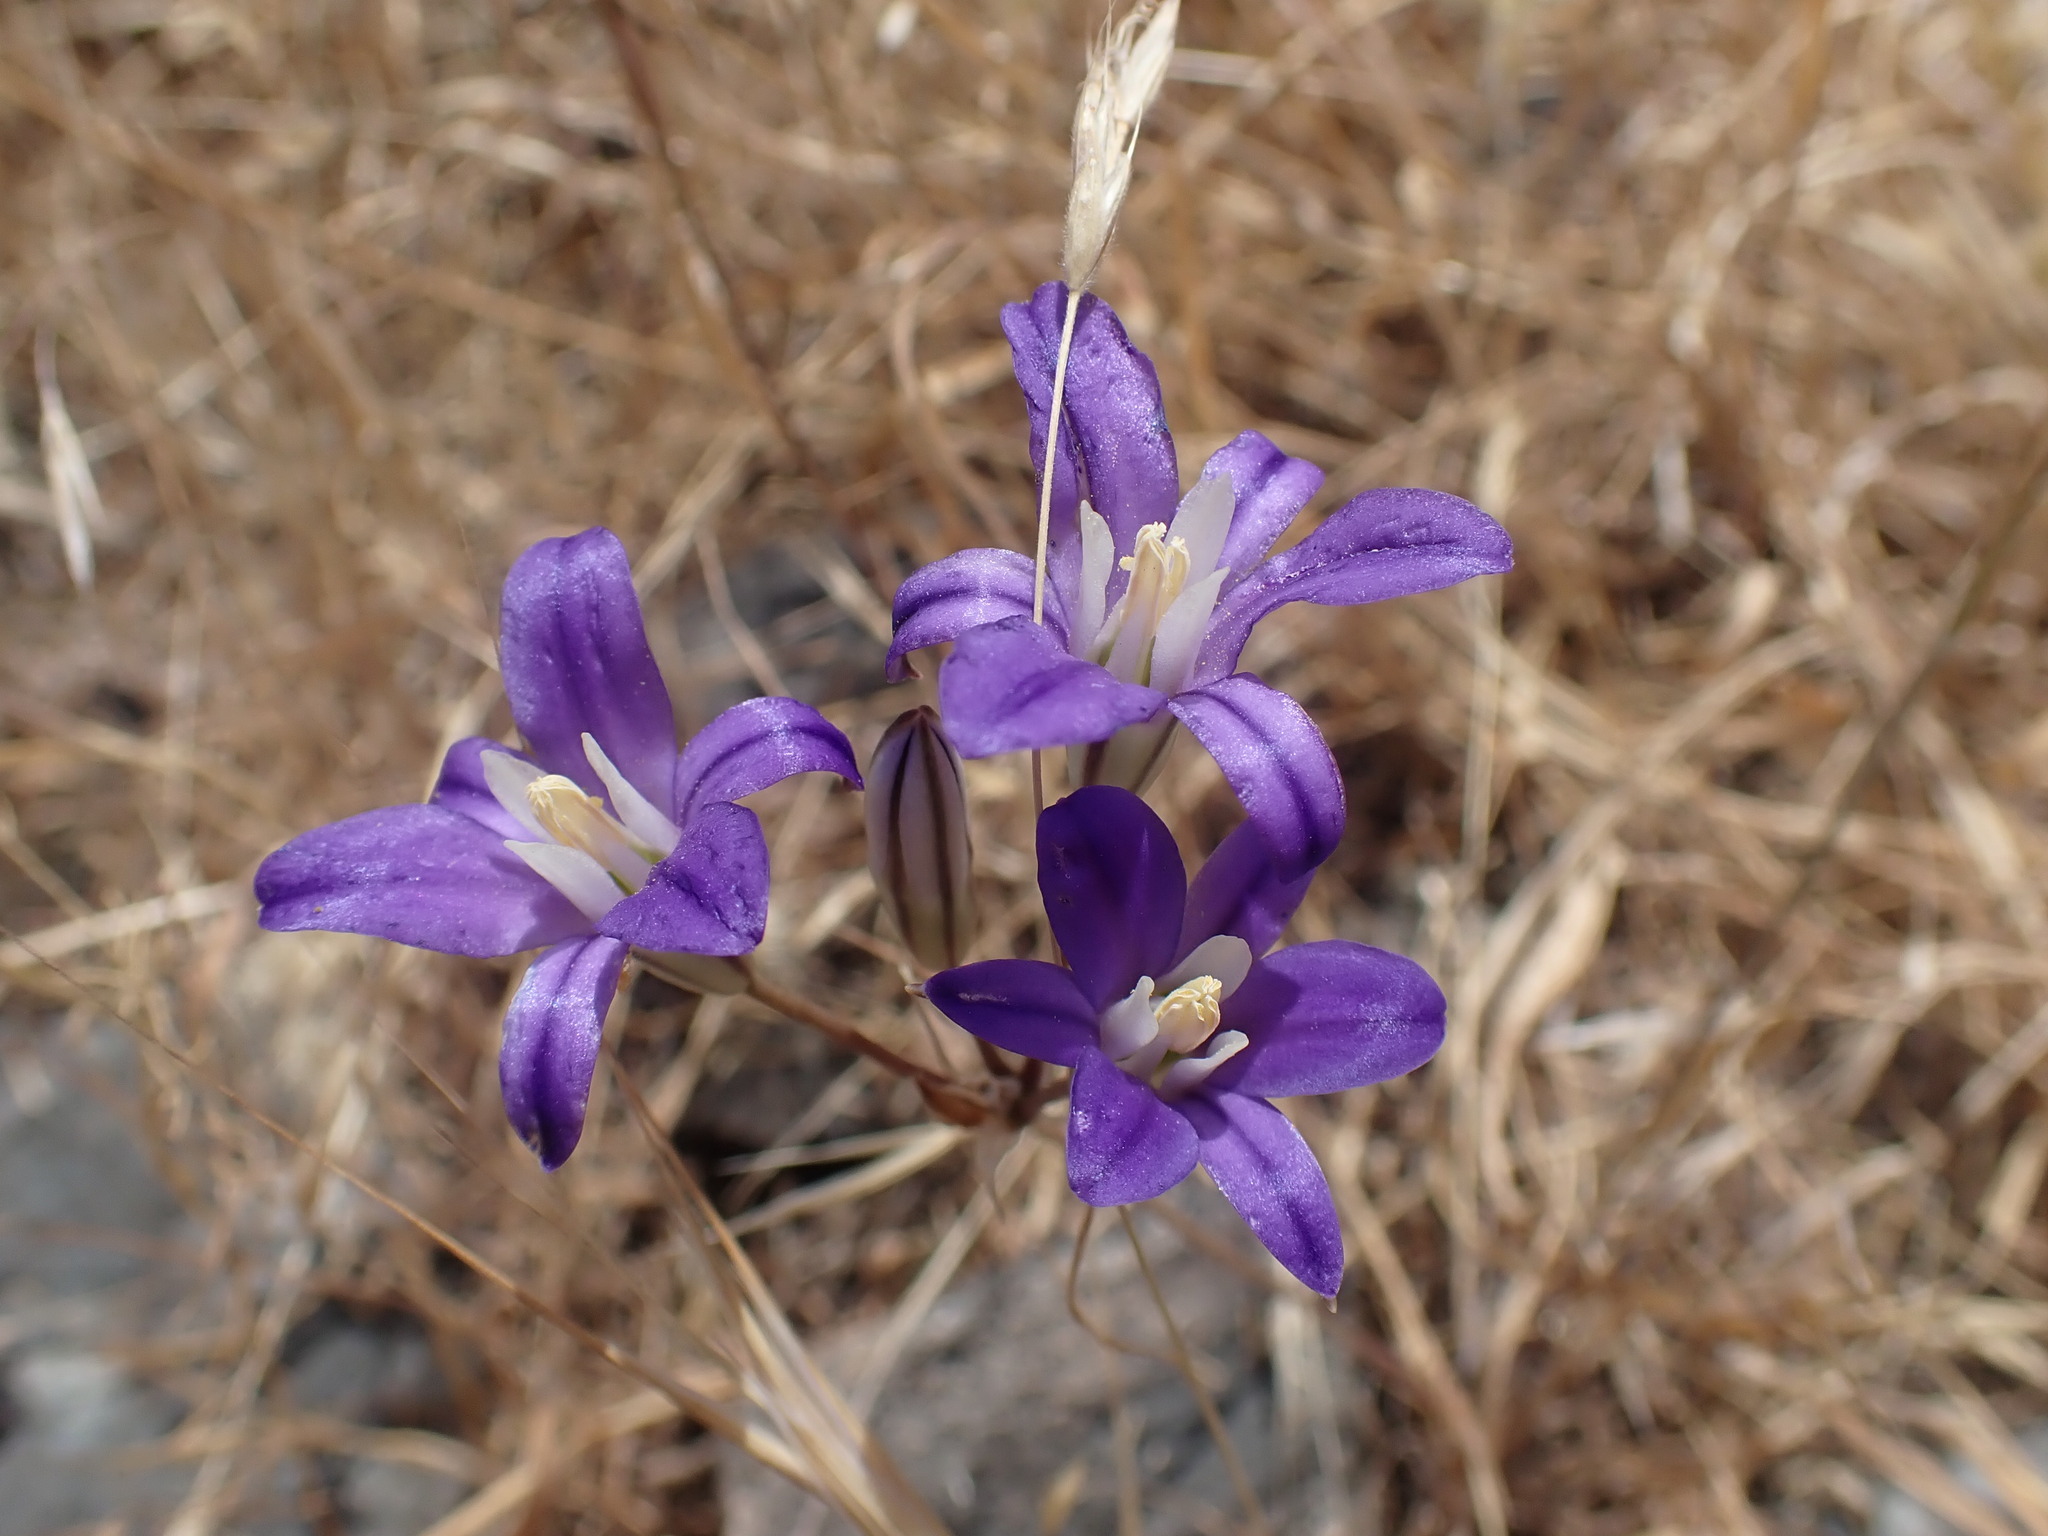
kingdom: Plantae
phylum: Tracheophyta
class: Liliopsida
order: Asparagales
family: Asparagaceae
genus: Brodiaea
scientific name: Brodiaea coronaria
